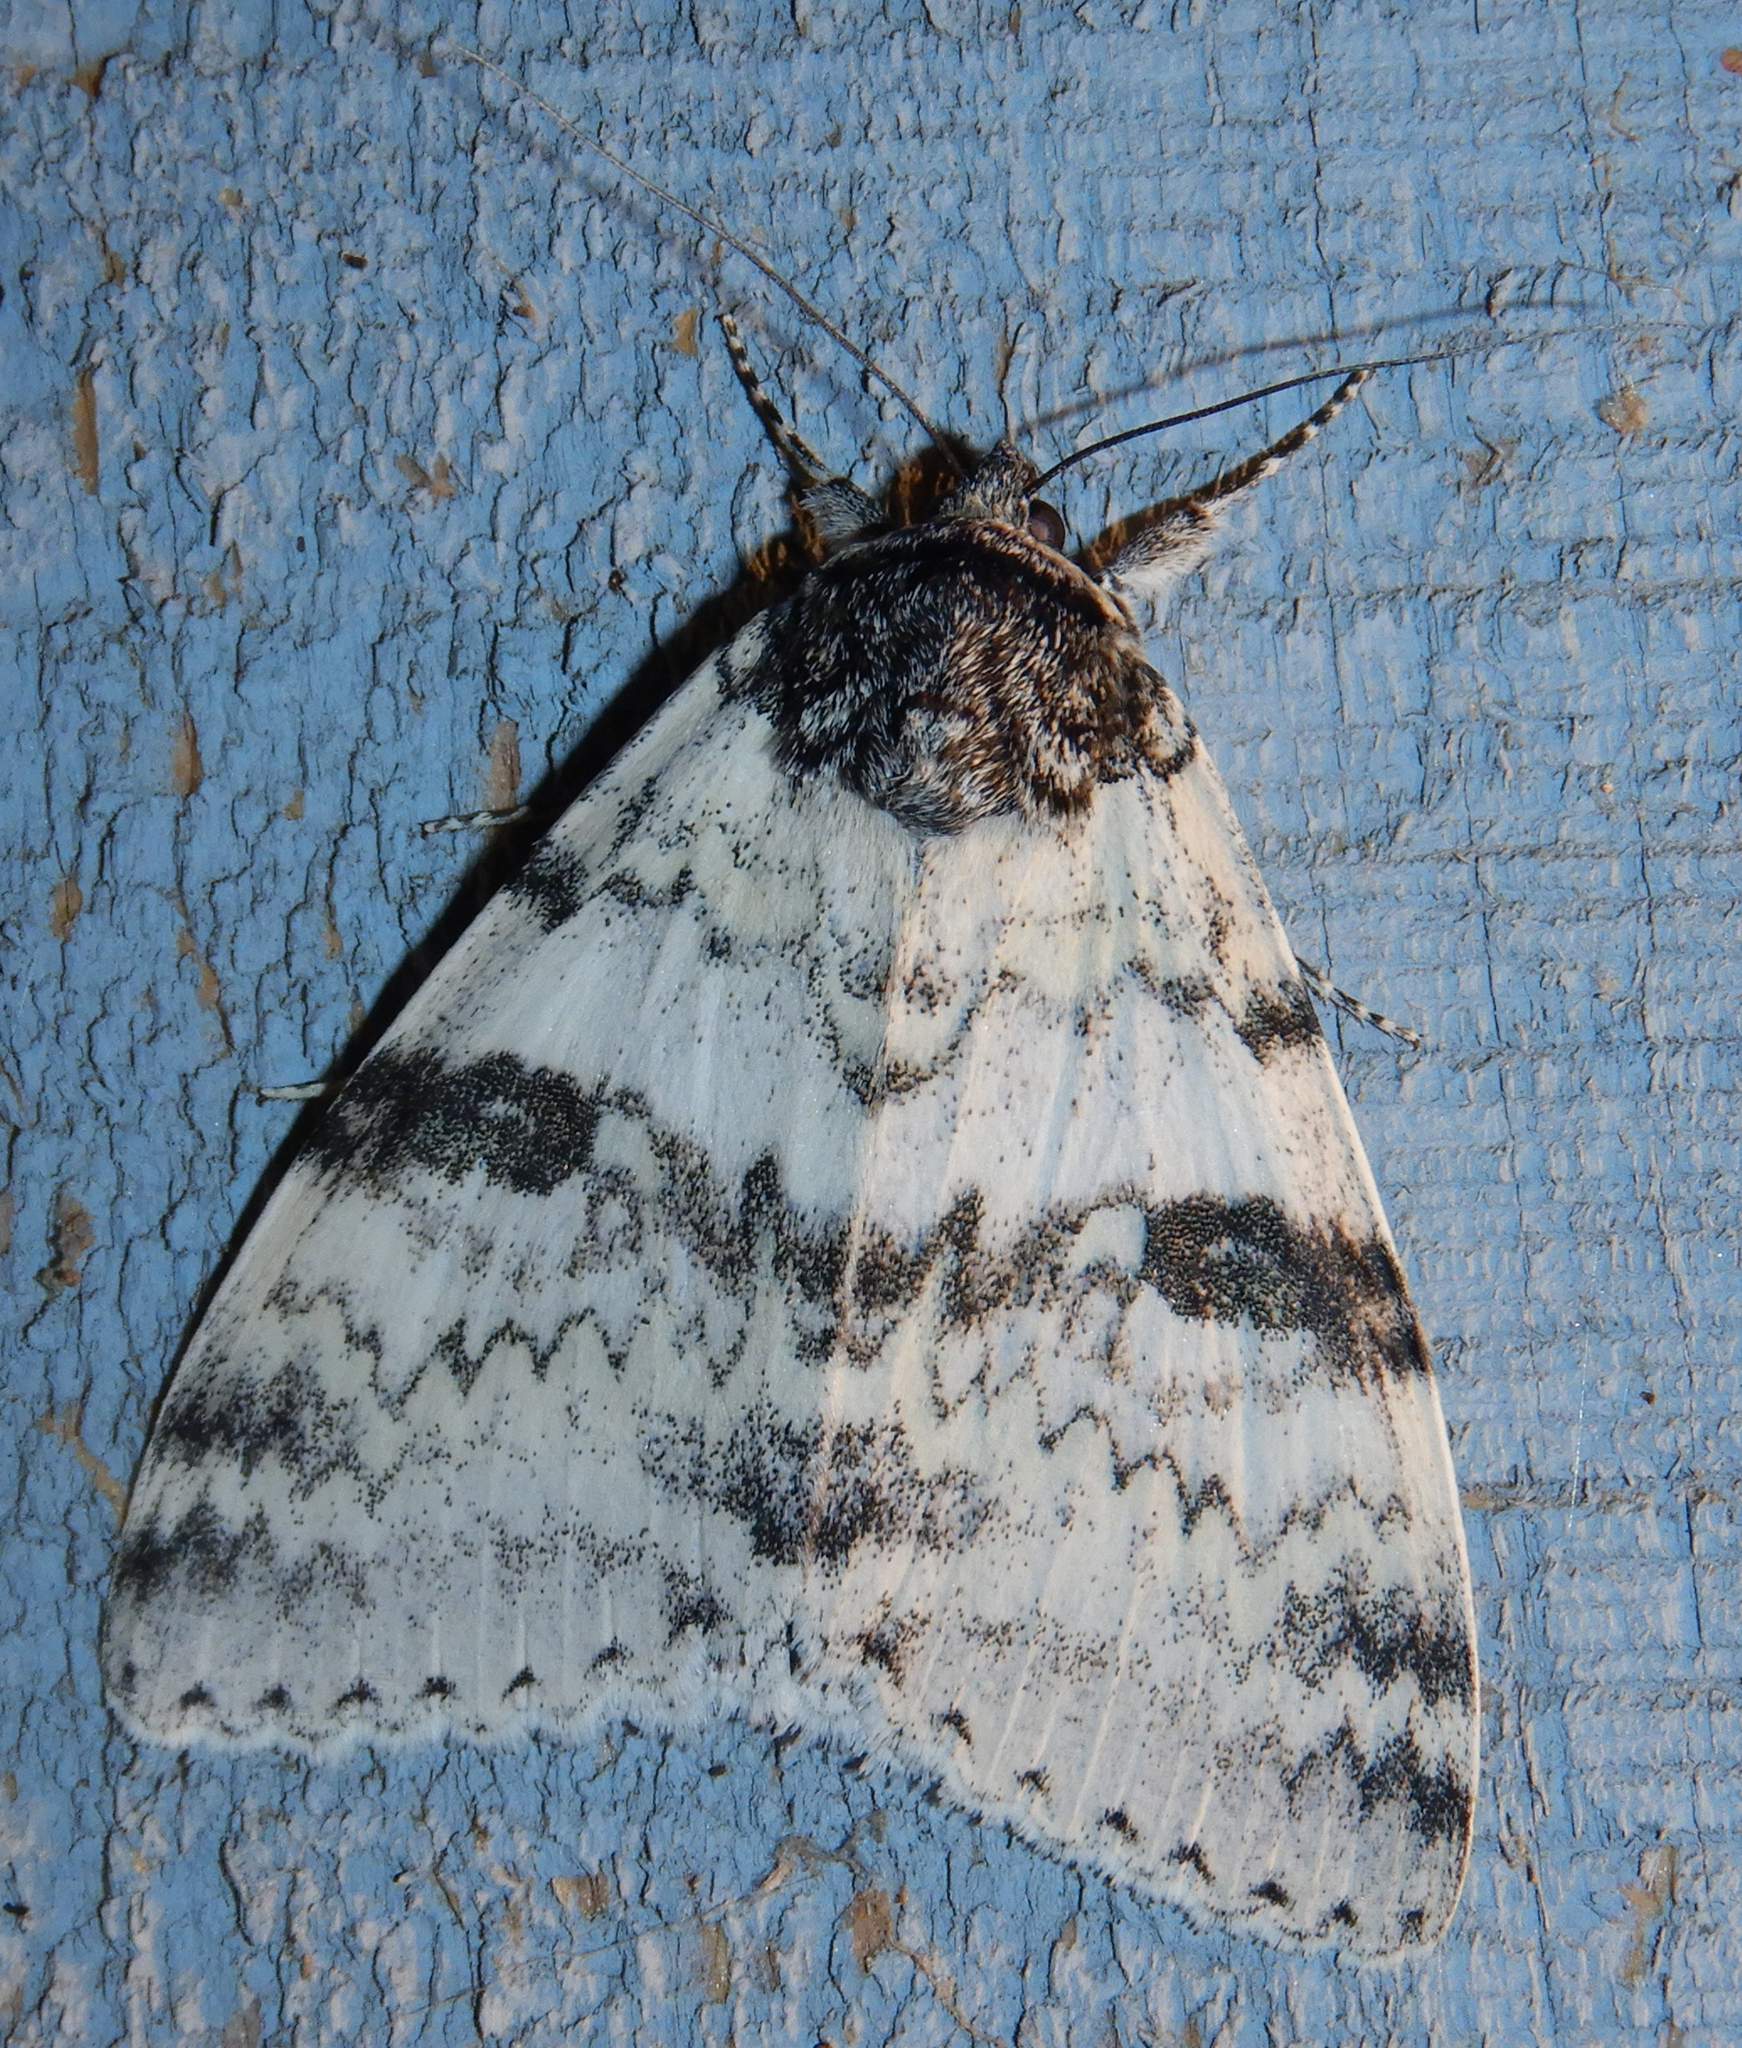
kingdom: Animalia
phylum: Arthropoda
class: Insecta
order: Lepidoptera
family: Erebidae
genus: Catocala
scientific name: Catocala relicta
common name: White underwing
